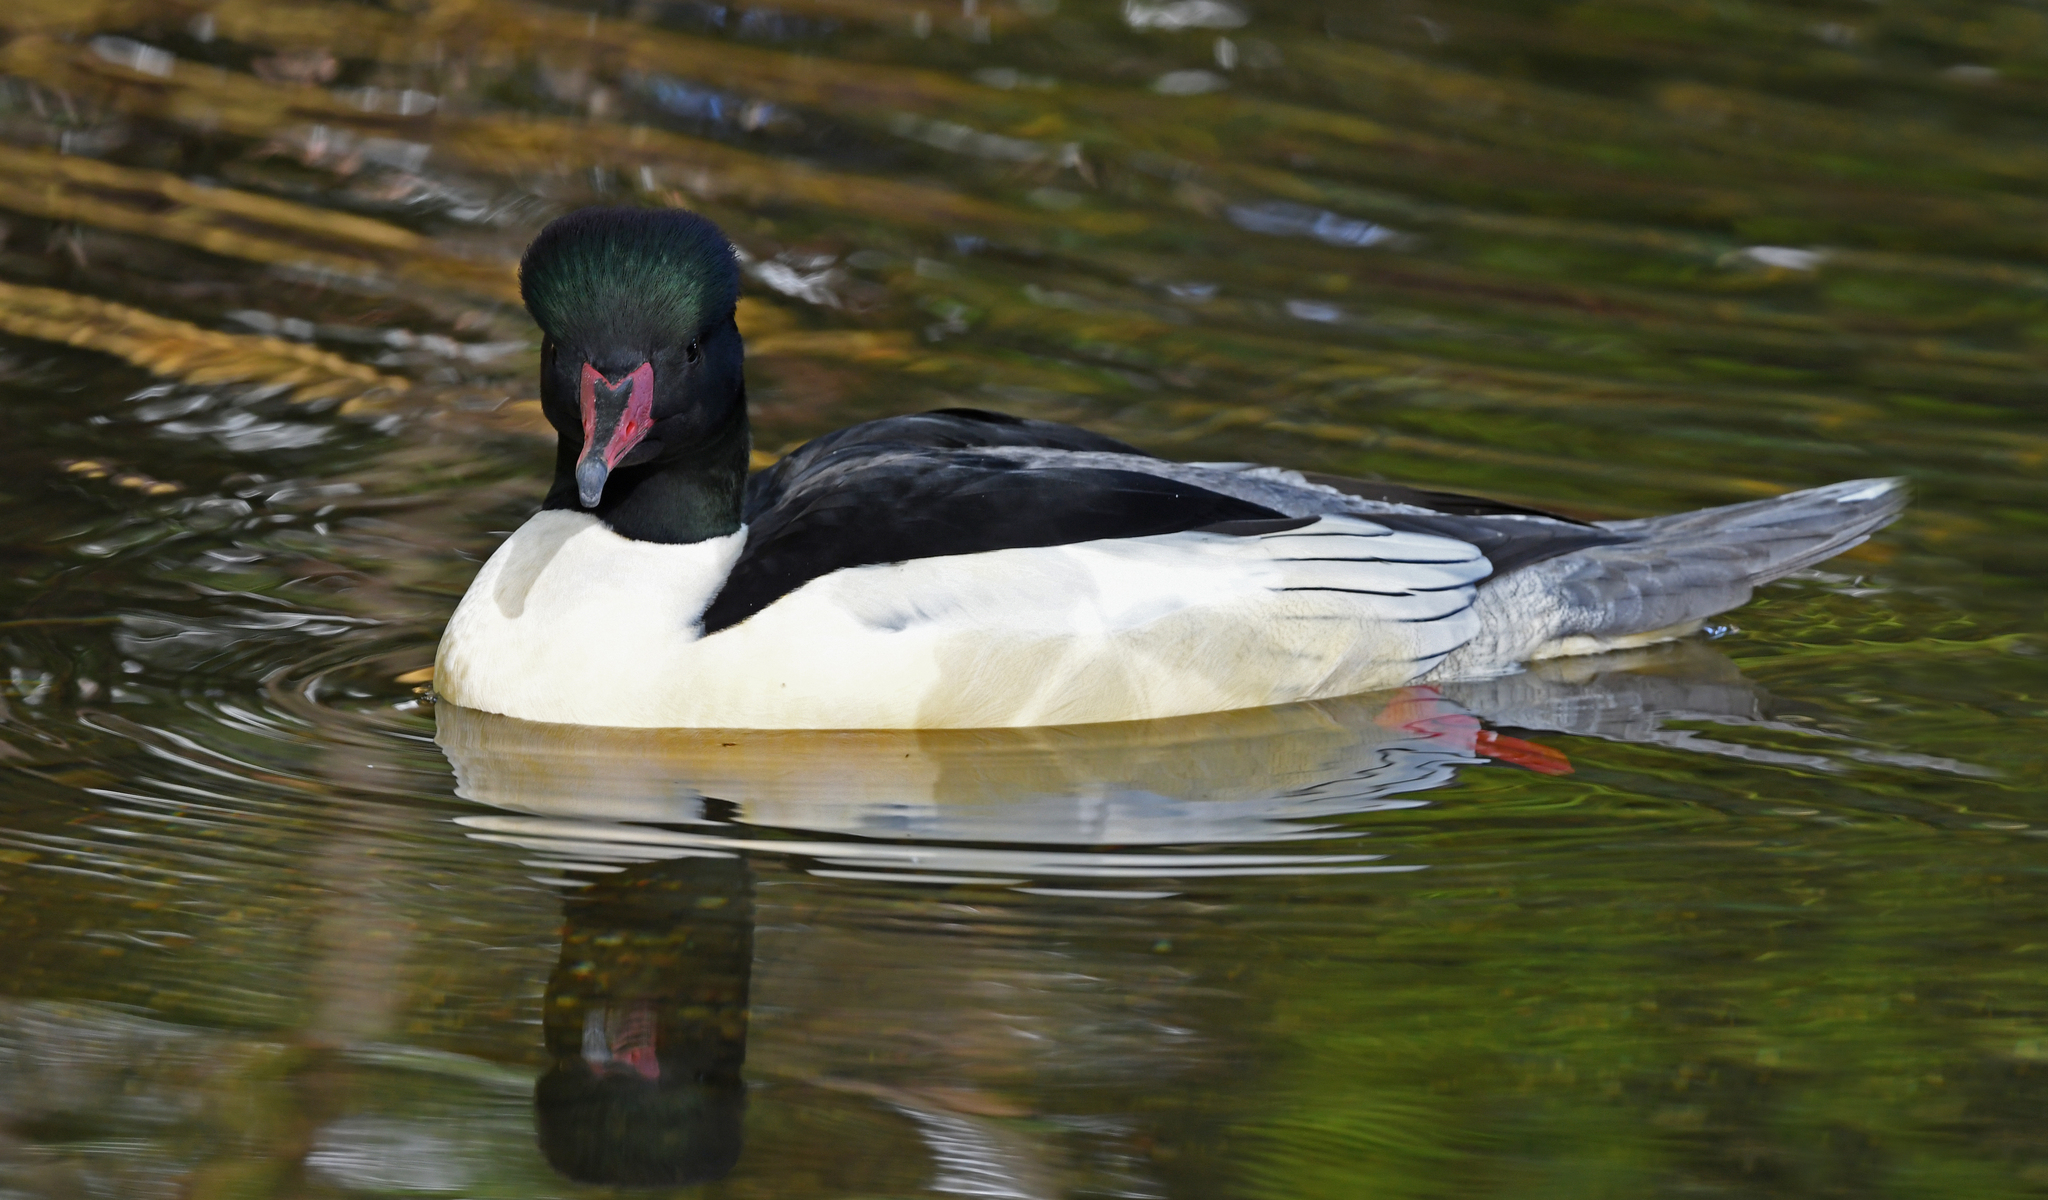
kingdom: Animalia
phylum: Chordata
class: Aves
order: Anseriformes
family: Anatidae
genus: Mergus
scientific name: Mergus merganser
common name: Common merganser
